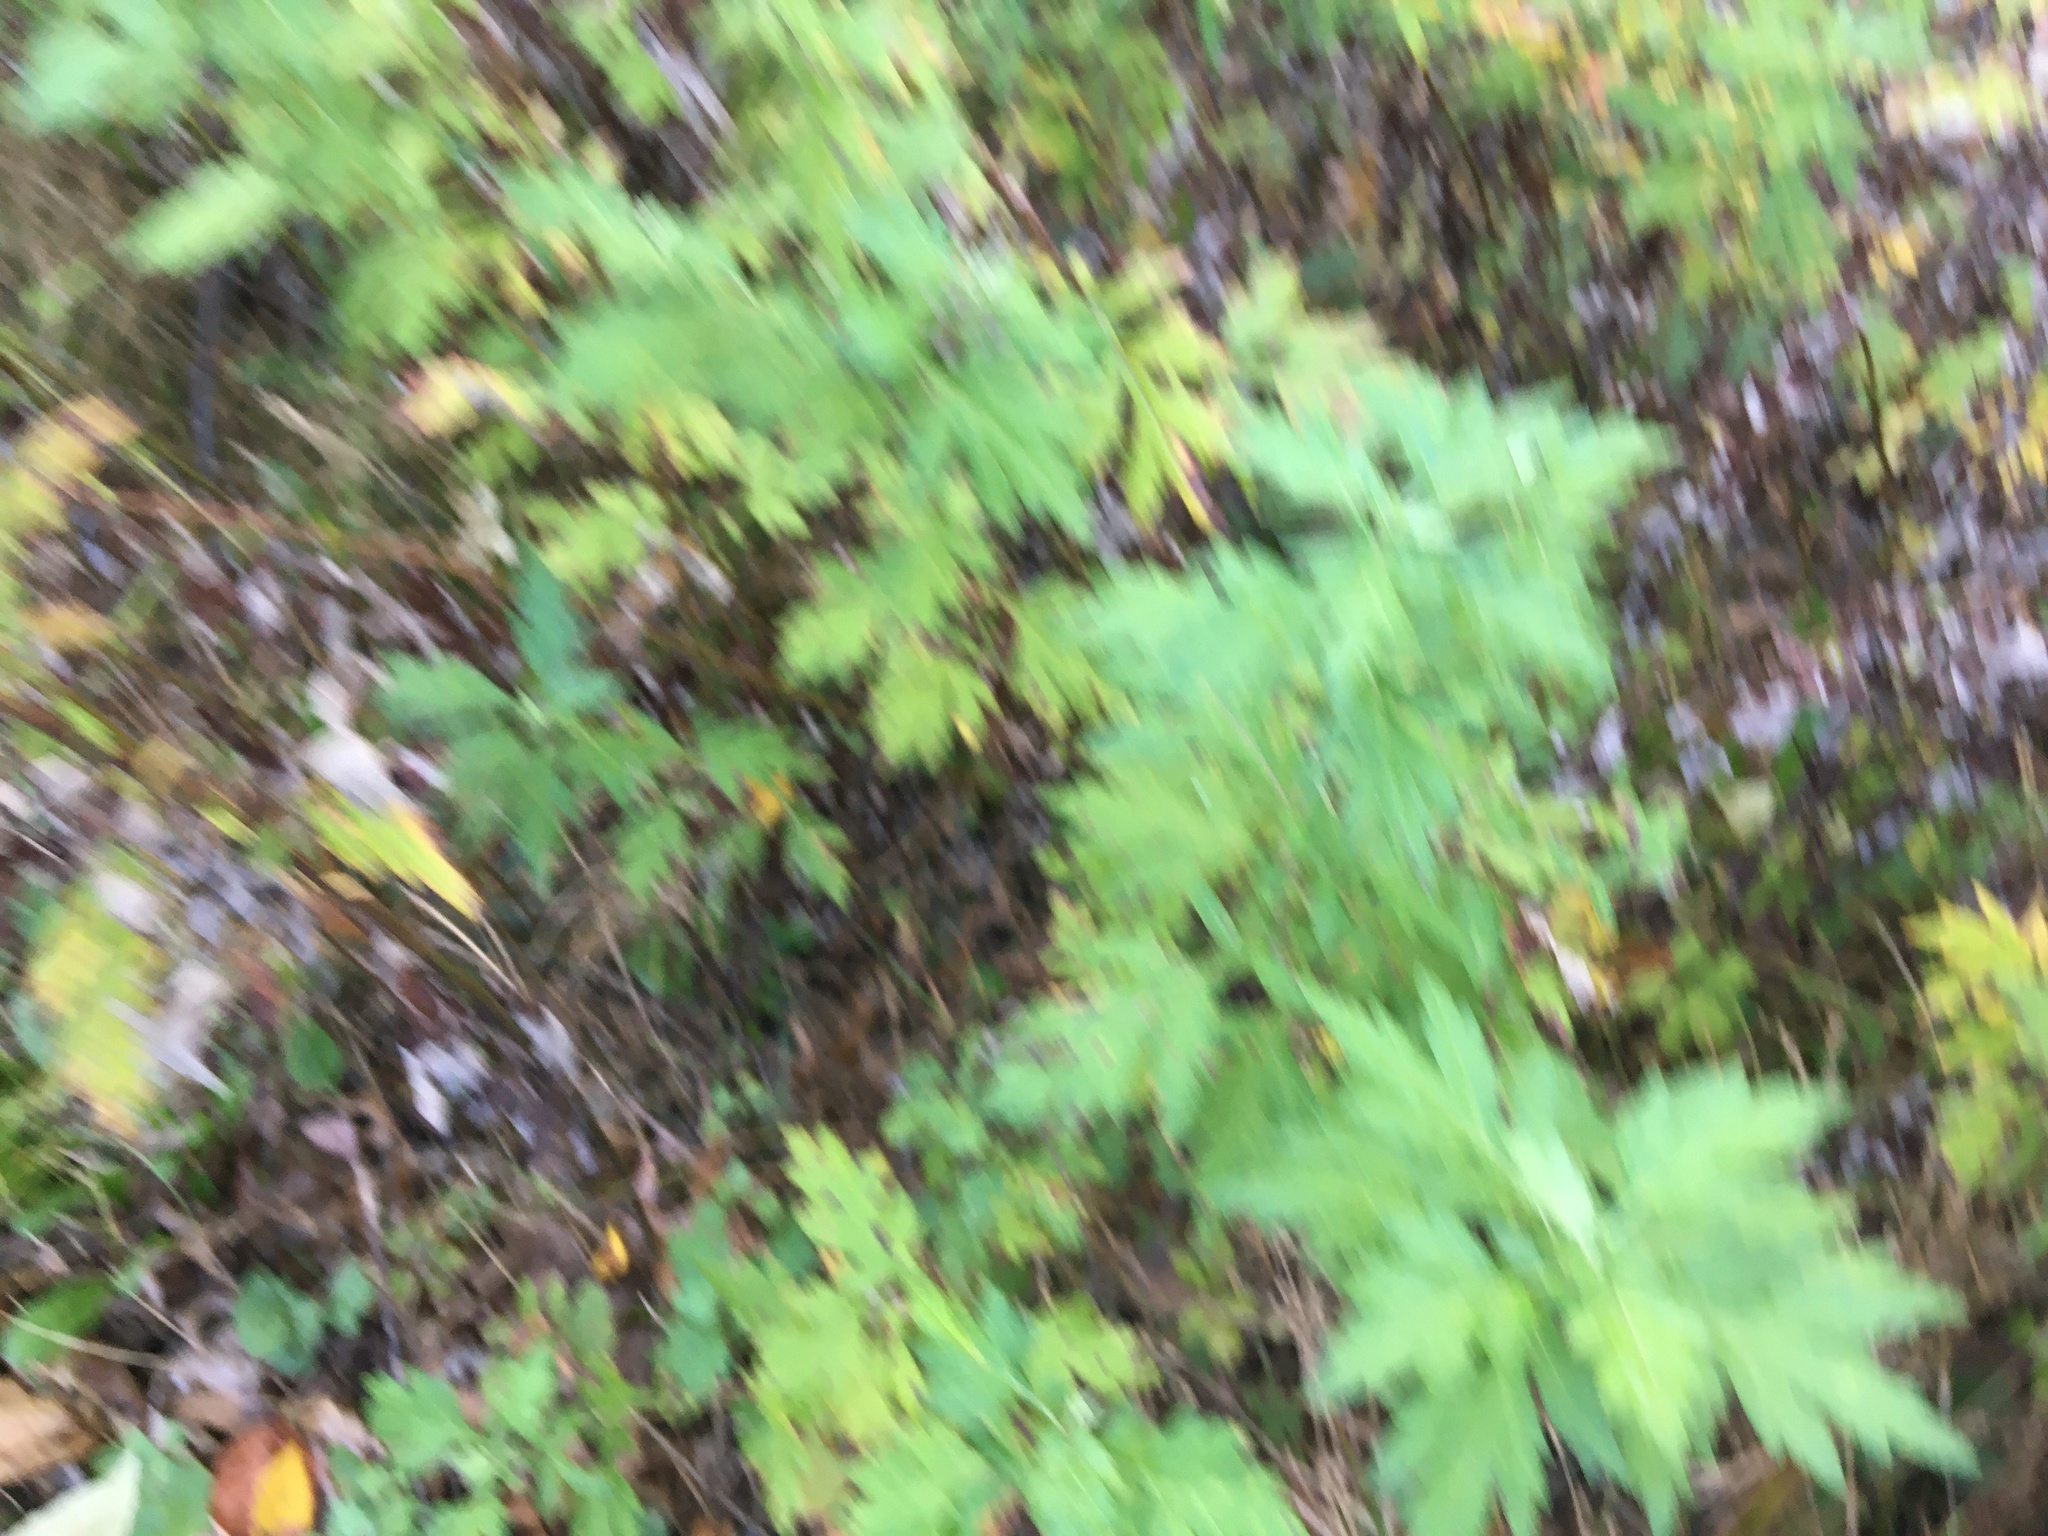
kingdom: Plantae
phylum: Tracheophyta
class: Magnoliopsida
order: Asterales
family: Asteraceae
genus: Artemisia
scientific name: Artemisia vulgaris
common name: Mugwort
